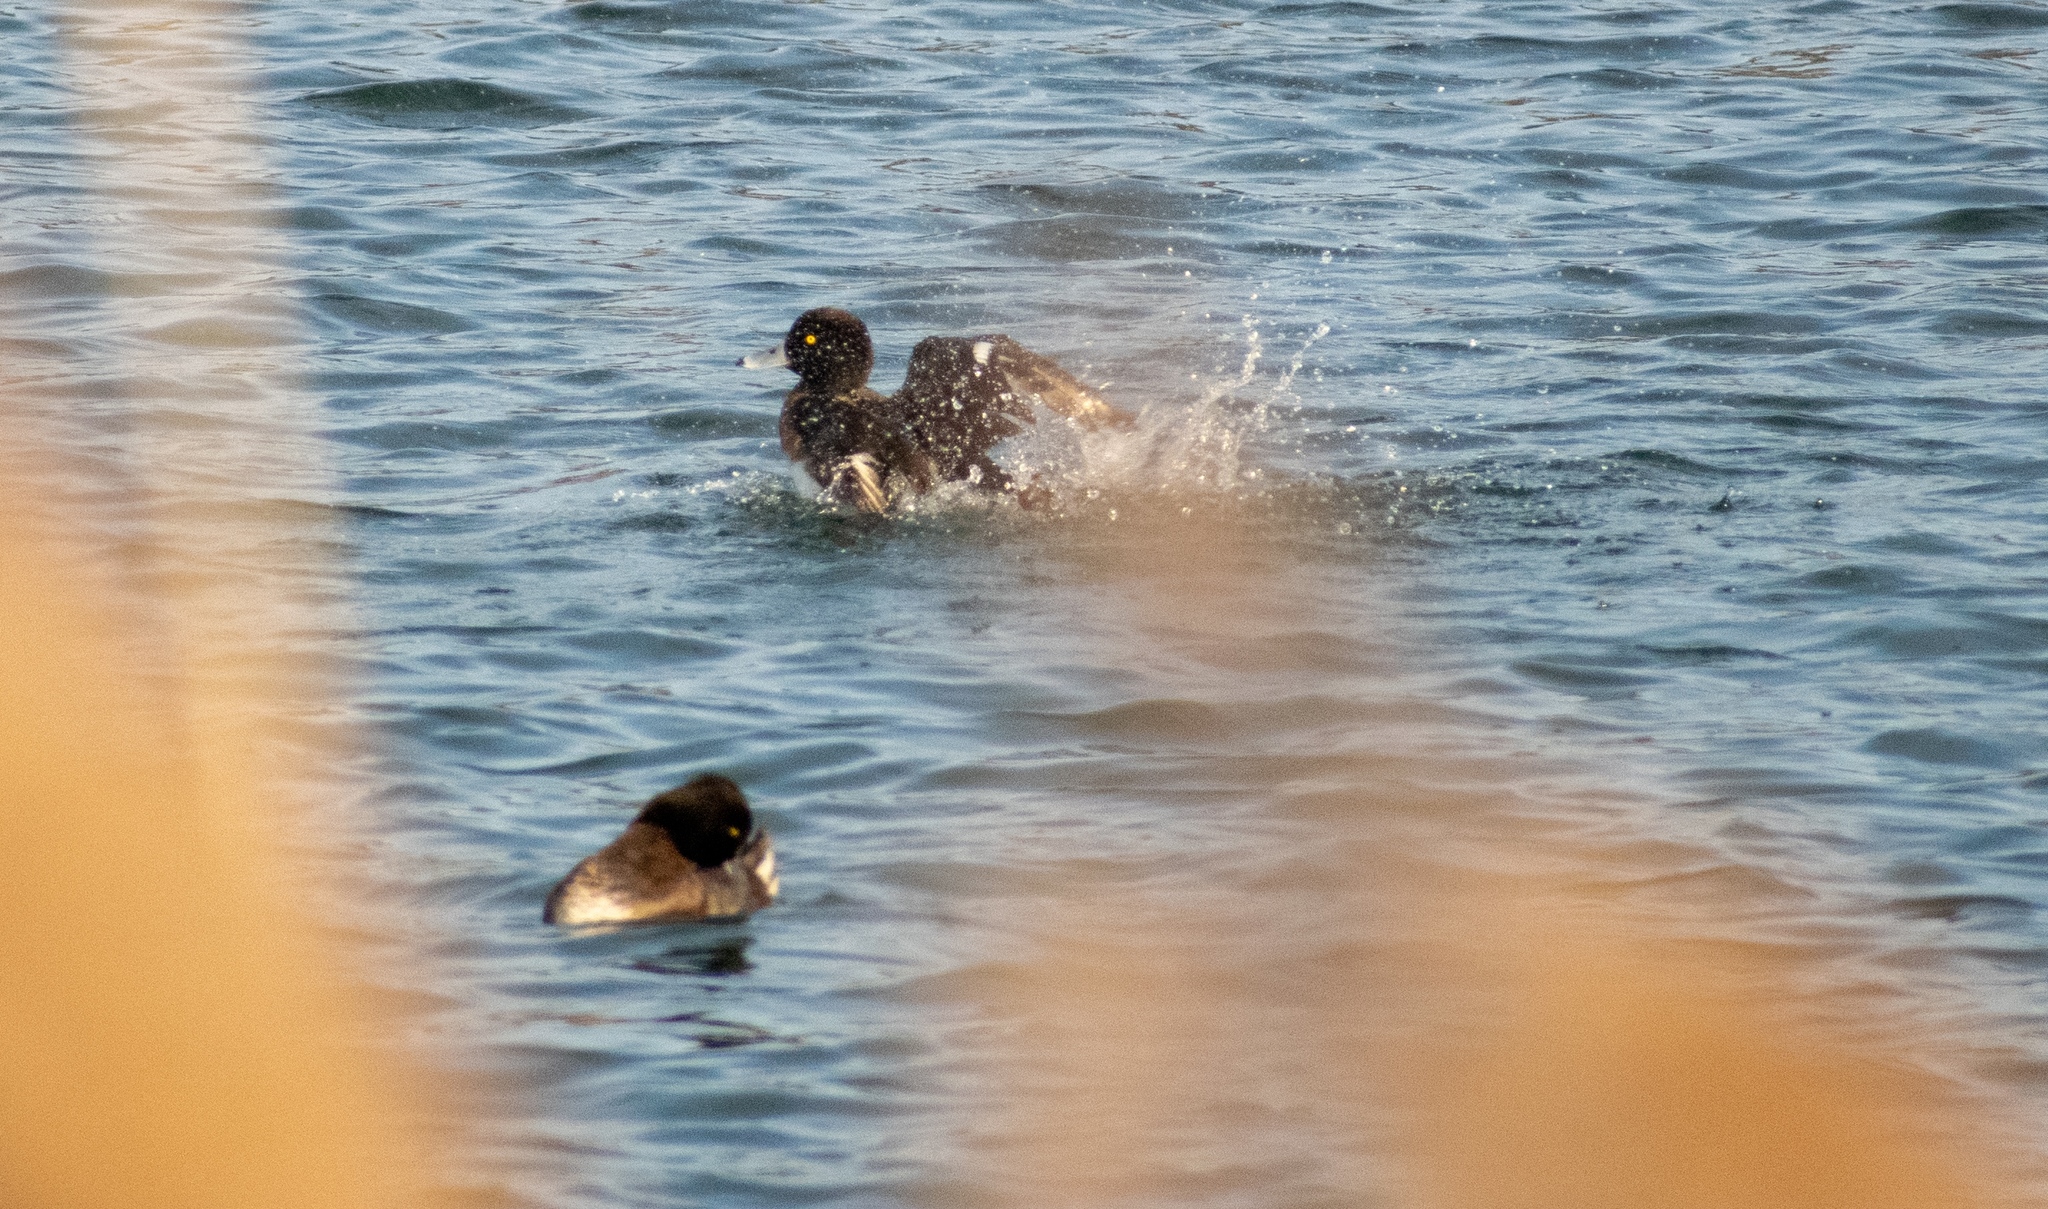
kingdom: Animalia
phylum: Chordata
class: Aves
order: Anseriformes
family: Anatidae
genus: Aythya
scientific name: Aythya fuligula
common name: Tufted duck
